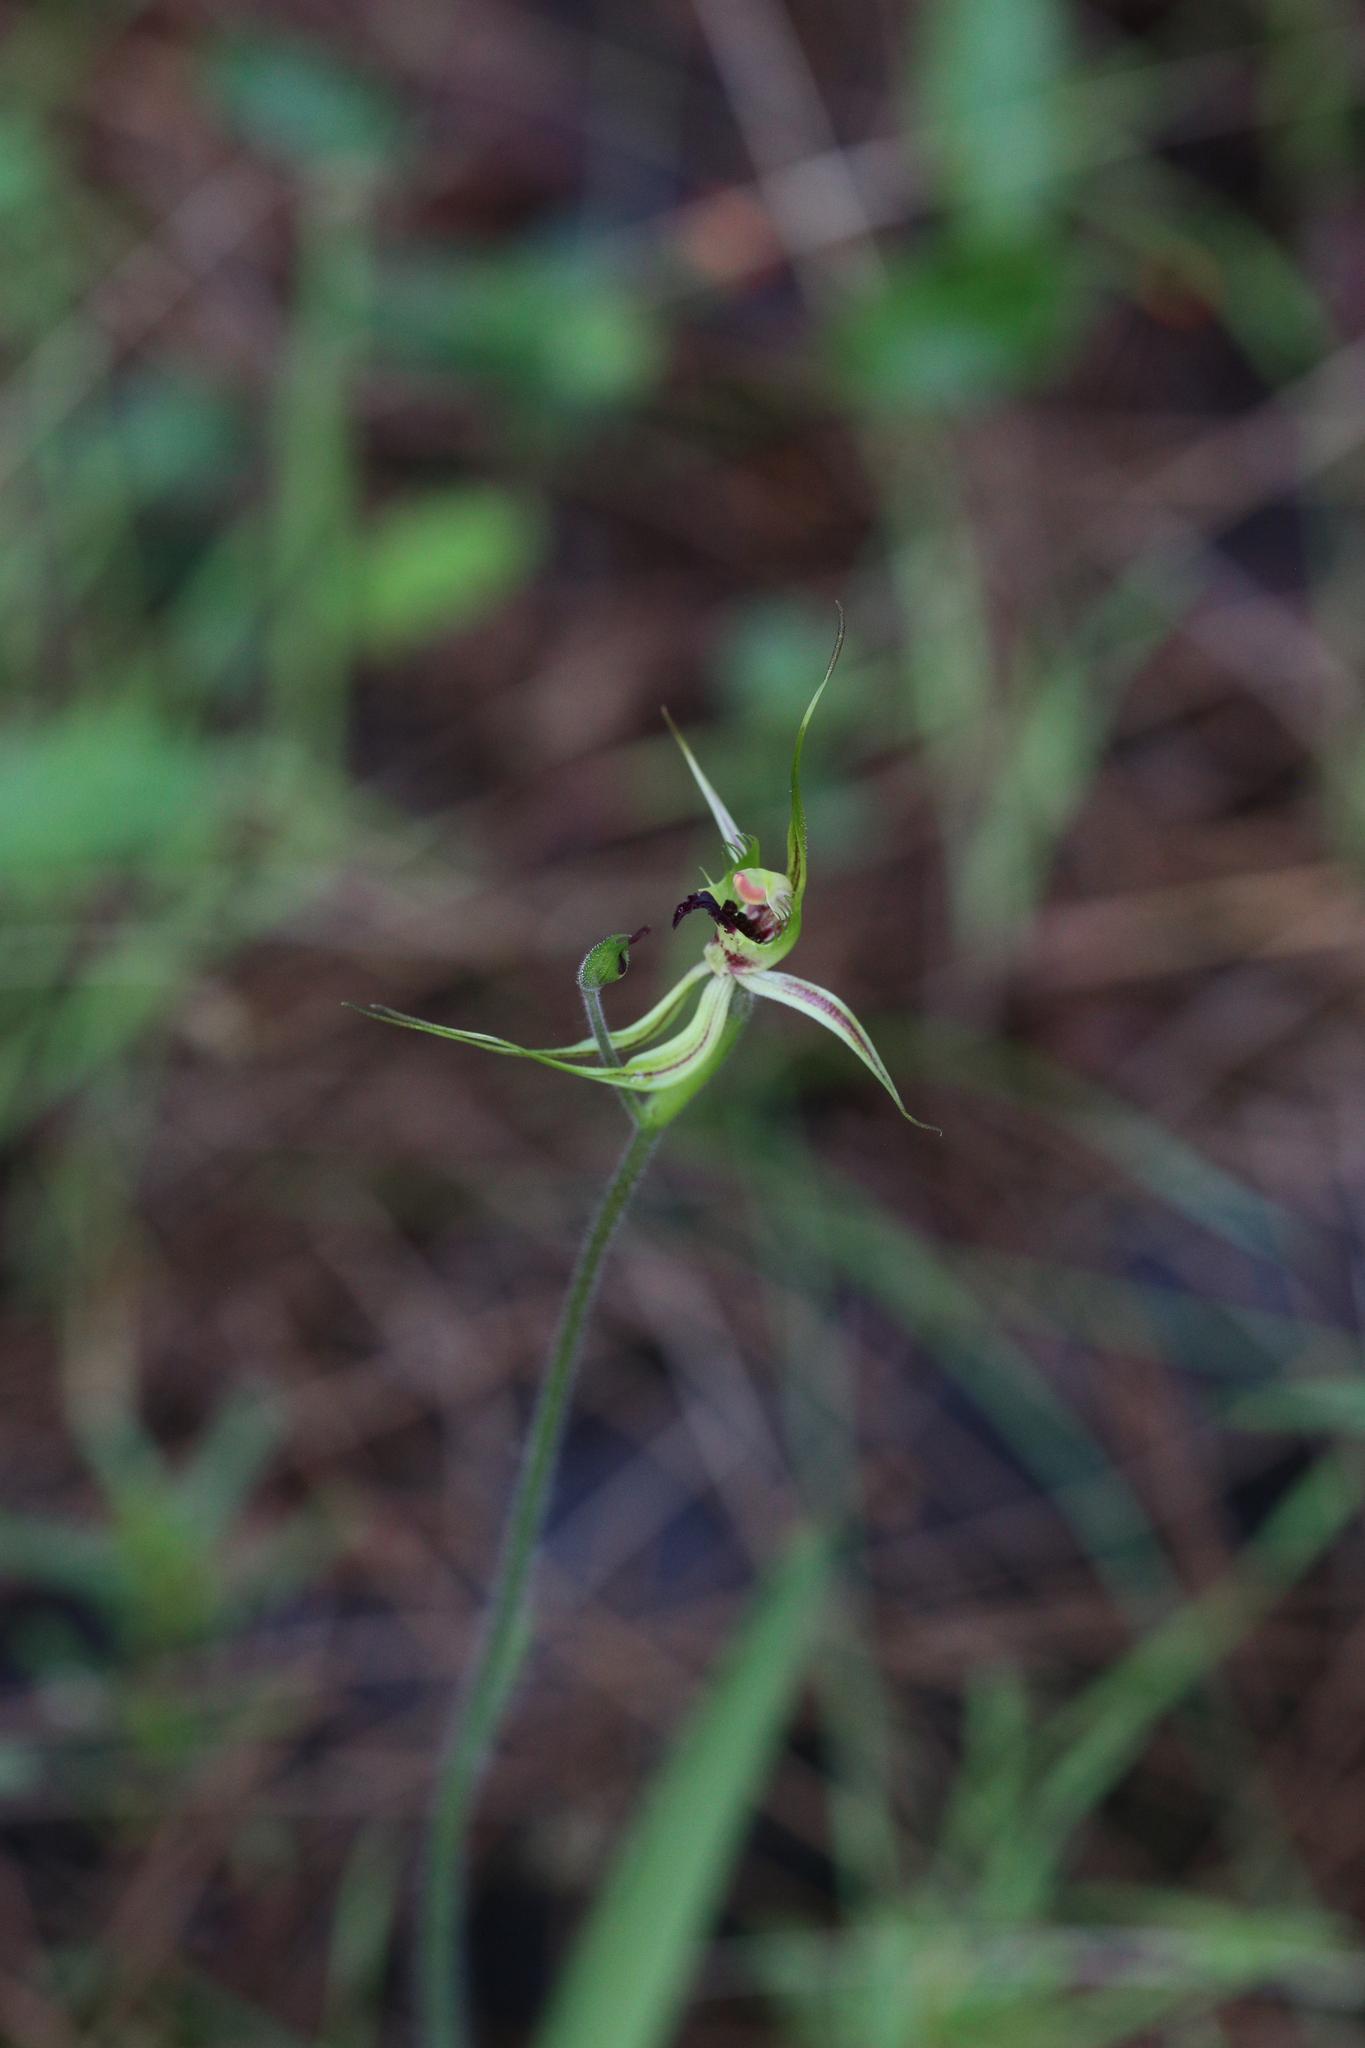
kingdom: Plantae
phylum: Tracheophyta
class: Liliopsida
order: Asparagales
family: Orchidaceae
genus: Caladenia
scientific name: Caladenia attingens
